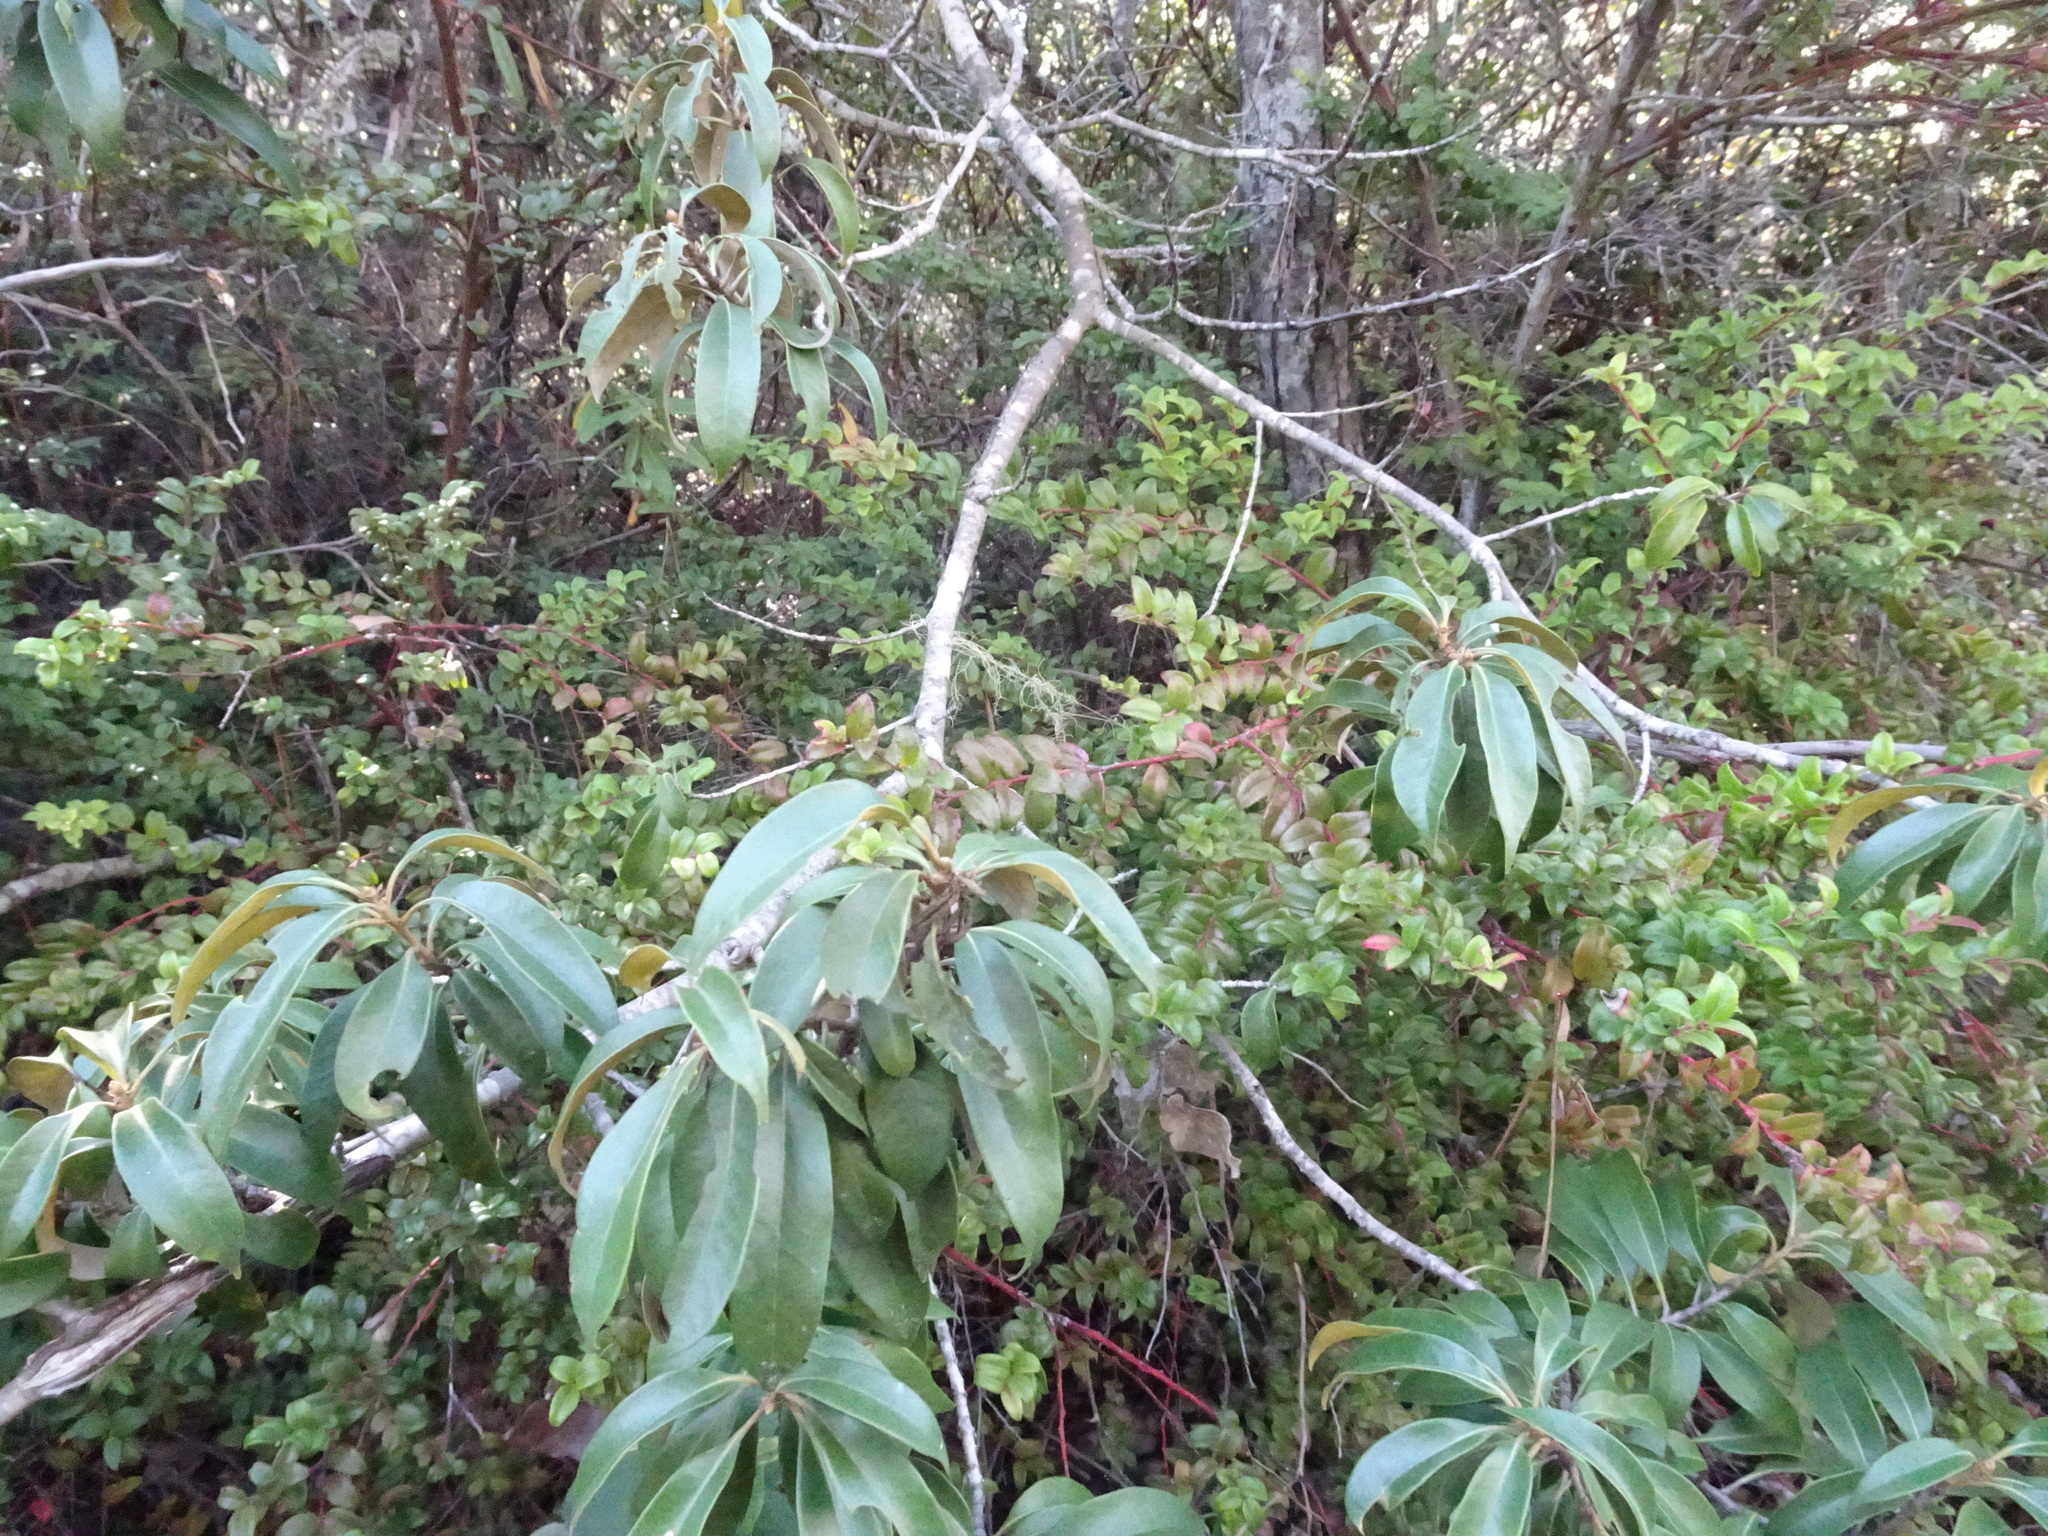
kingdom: Plantae
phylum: Tracheophyta
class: Magnoliopsida
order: Fagales
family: Fagaceae
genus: Chrysolepis
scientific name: Chrysolepis chrysophylla
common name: Giant chinquapin
